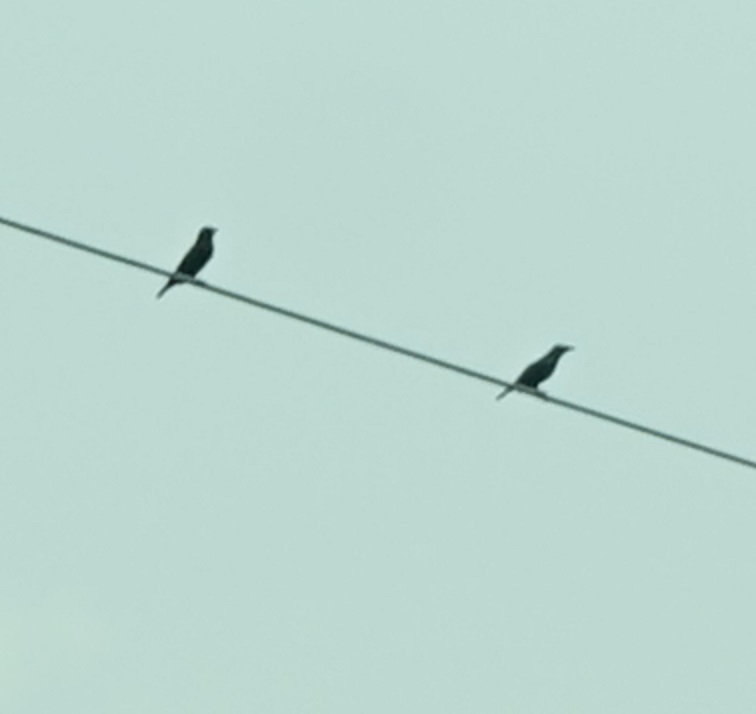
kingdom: Animalia
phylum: Chordata
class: Aves
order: Passeriformes
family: Sturnidae
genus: Aplonis
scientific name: Aplonis panayensis
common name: Asian glossy starling
